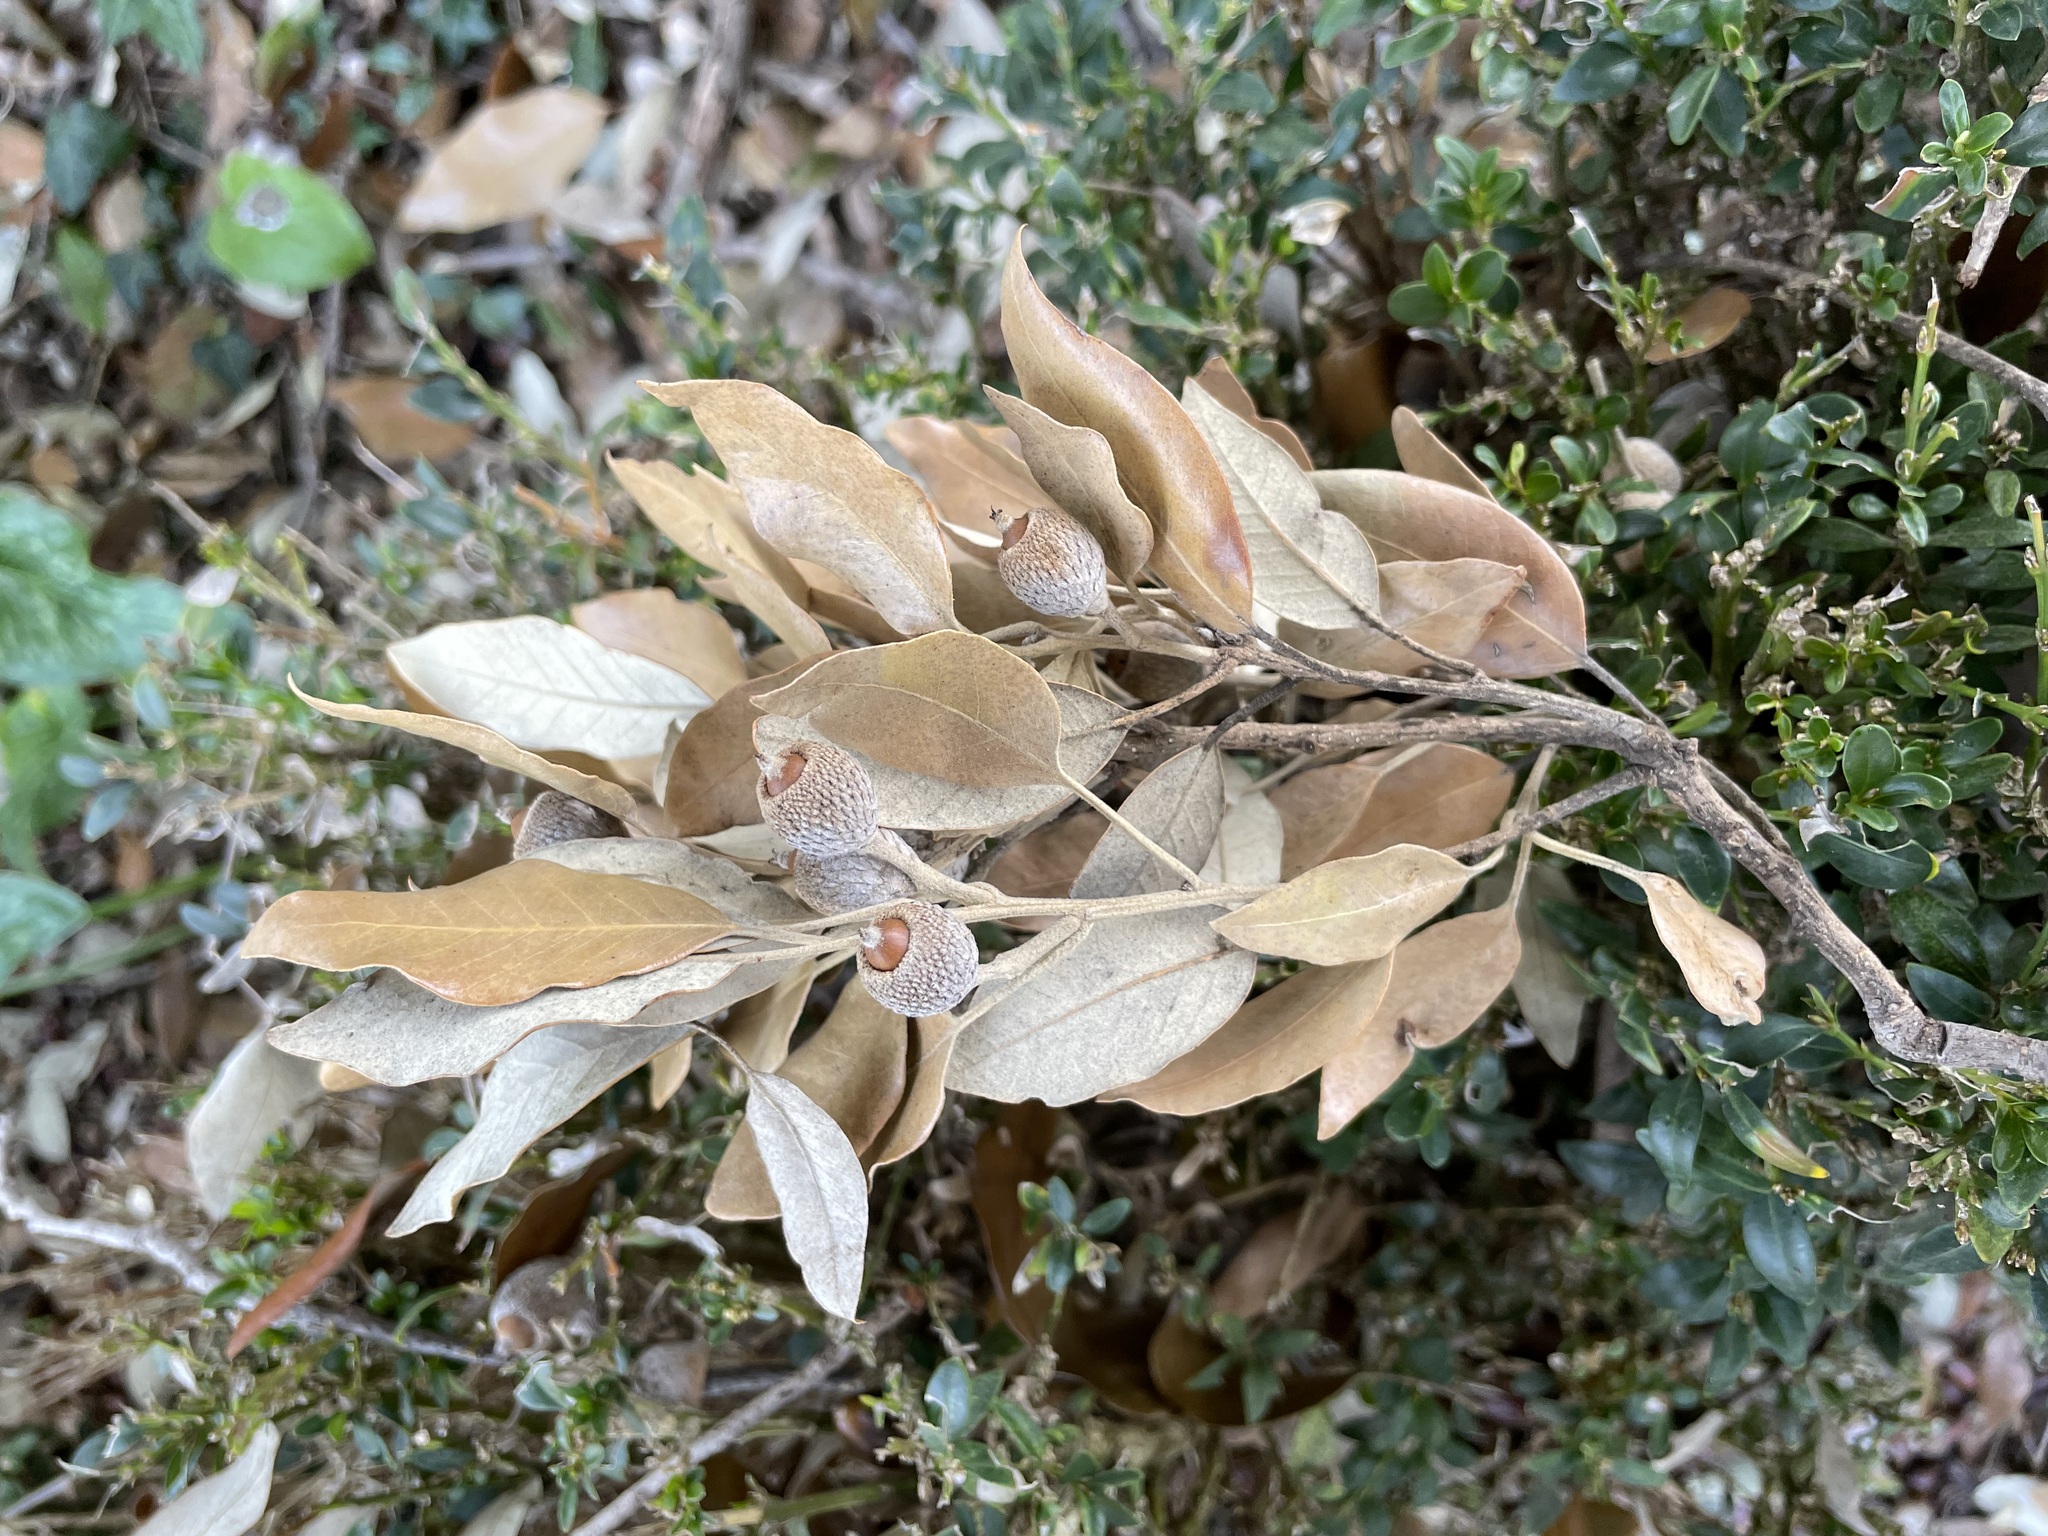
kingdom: Plantae
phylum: Tracheophyta
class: Magnoliopsida
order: Fagales
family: Fagaceae
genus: Quercus
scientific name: Quercus ilex
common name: Evergreen oak
